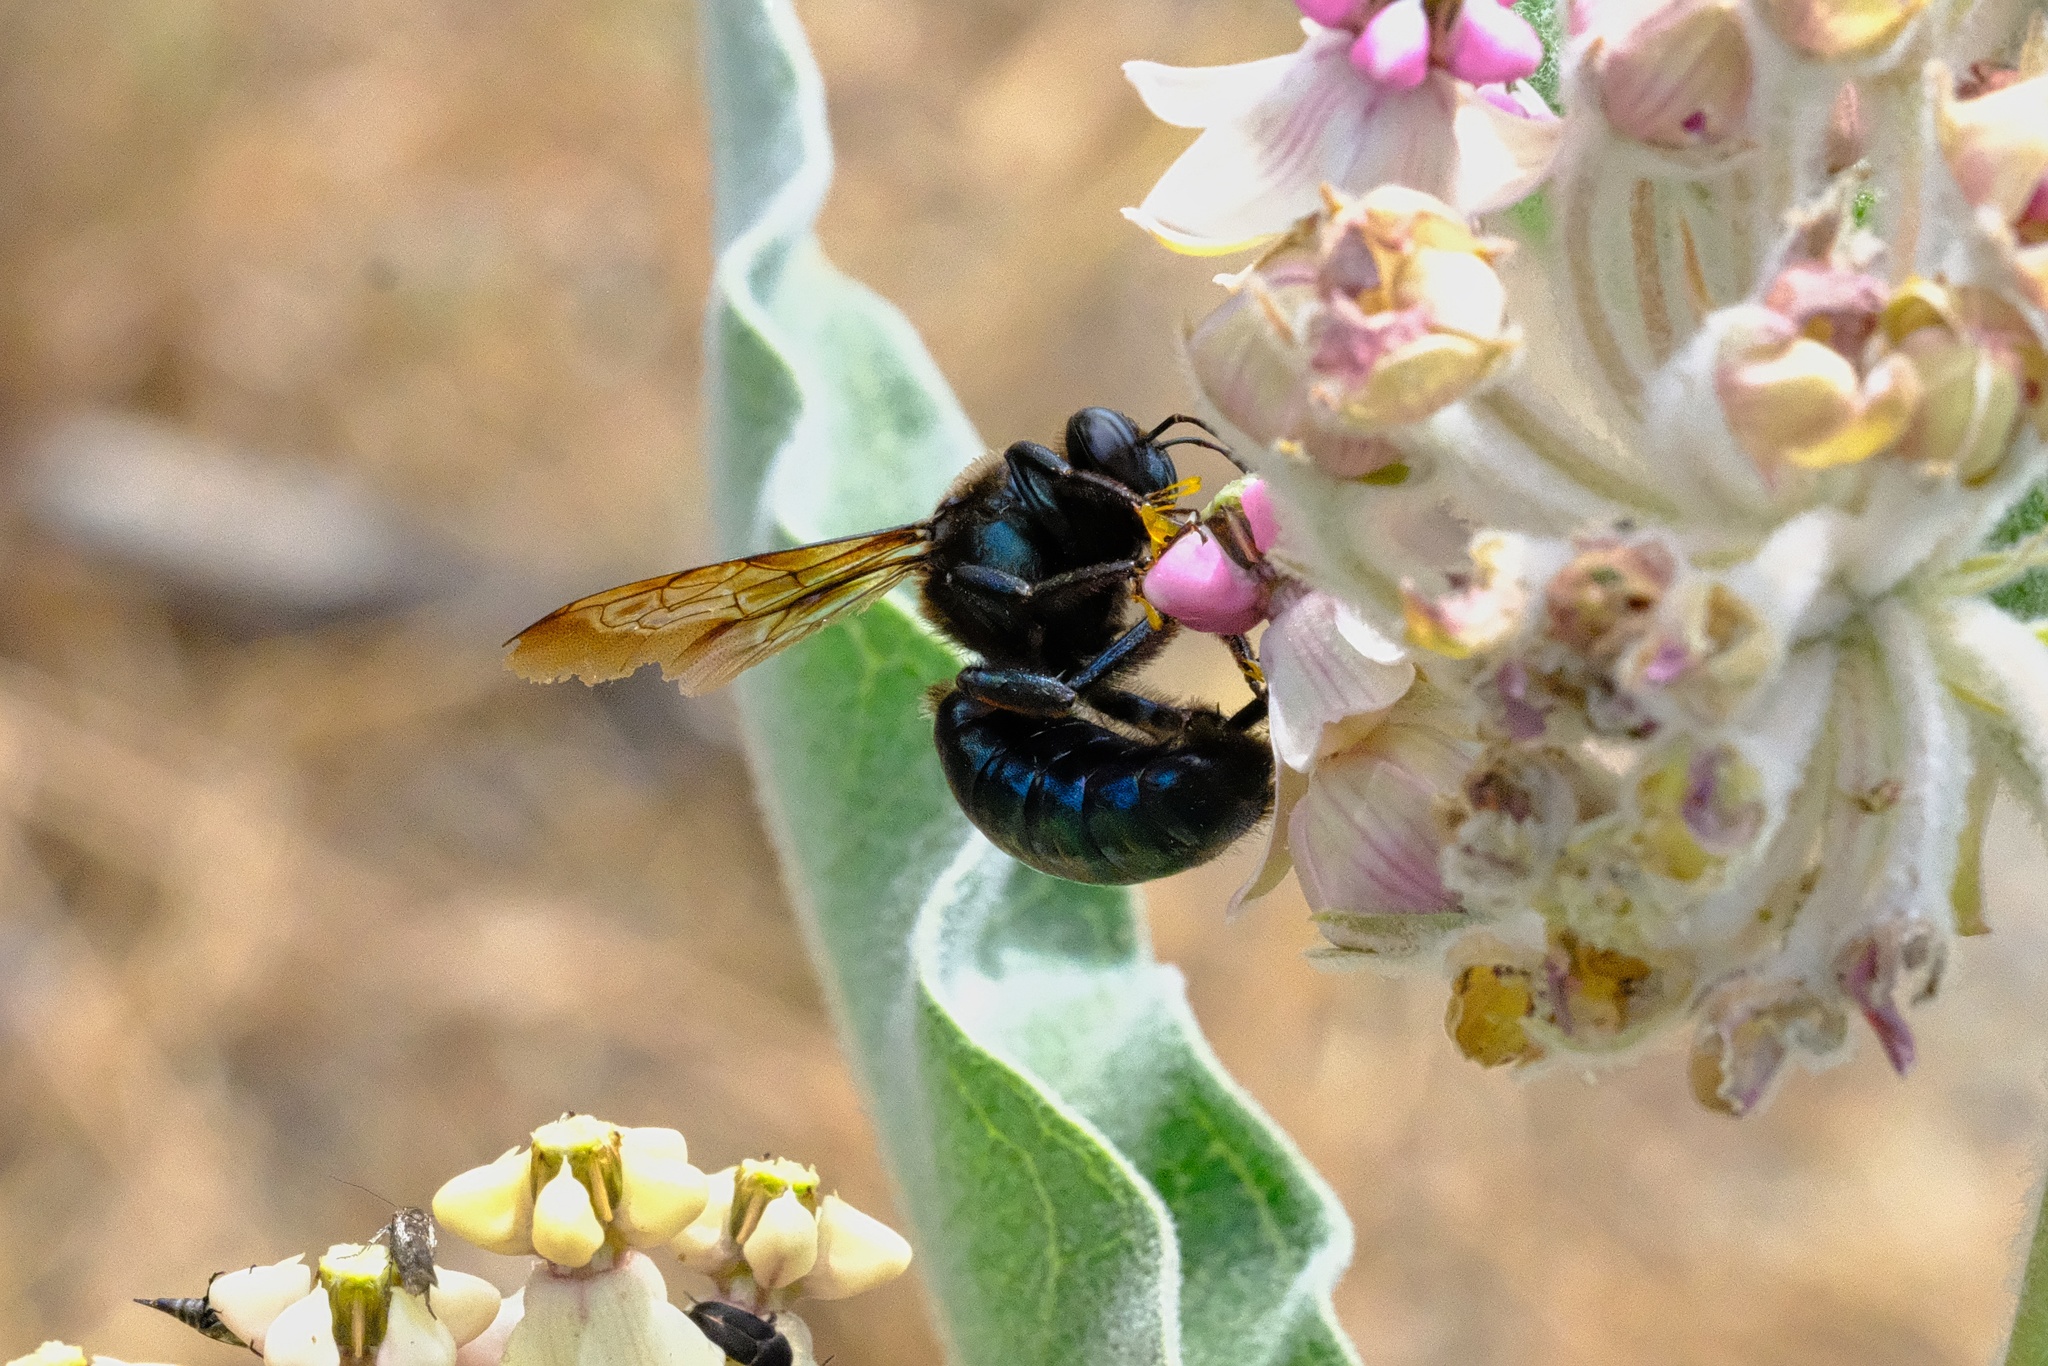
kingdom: Animalia
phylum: Arthropoda
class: Insecta
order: Hymenoptera
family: Apidae
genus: Xylocopa
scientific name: Xylocopa californica
